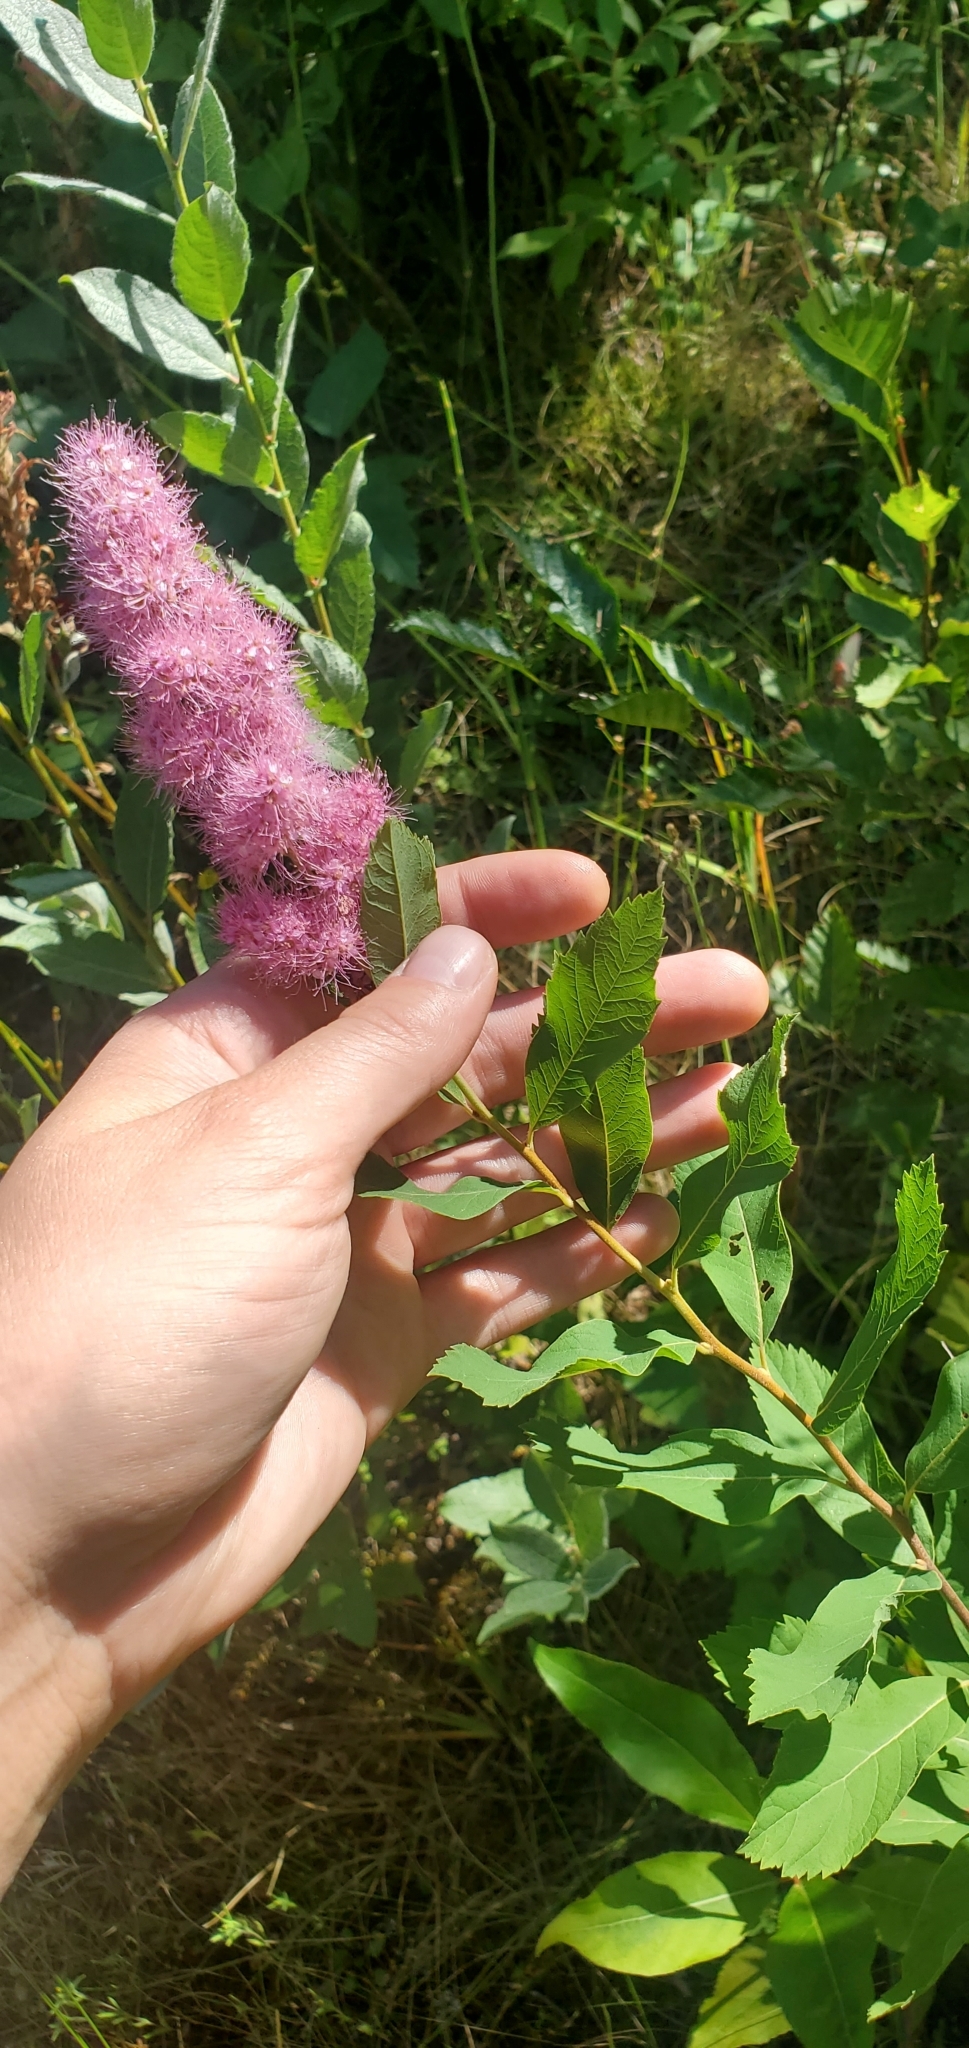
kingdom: Plantae
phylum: Tracheophyta
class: Magnoliopsida
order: Rosales
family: Rosaceae
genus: Spiraea
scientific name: Spiraea douglasii
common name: Steeplebush
